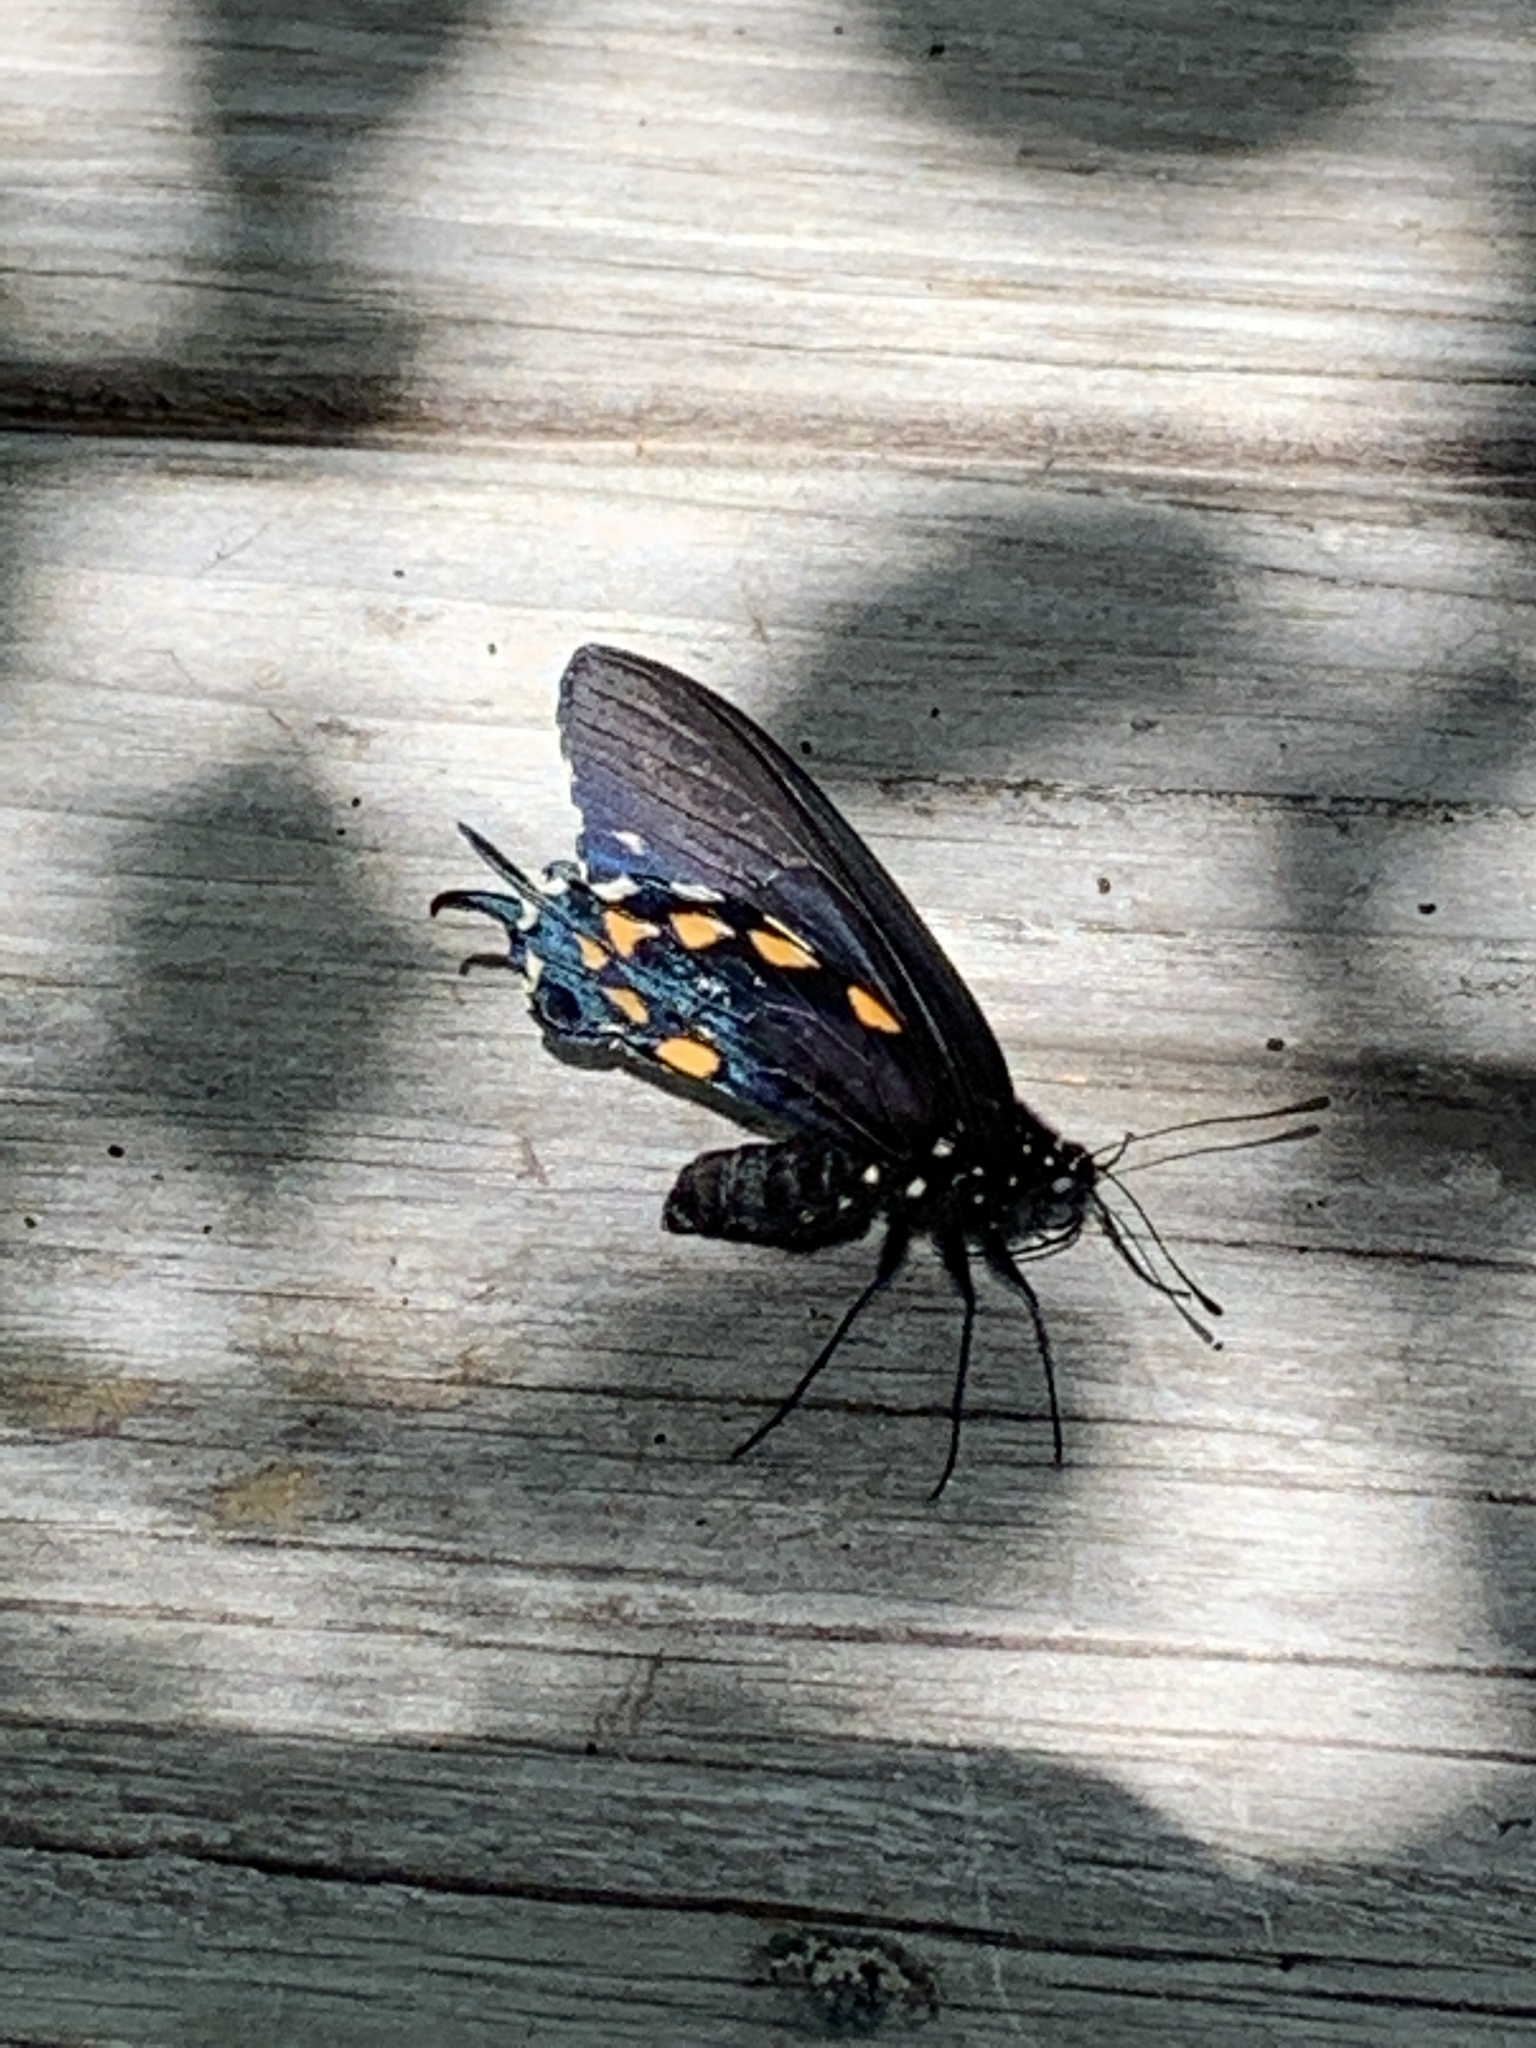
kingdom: Animalia
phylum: Arthropoda
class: Insecta
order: Lepidoptera
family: Papilionidae
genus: Battus
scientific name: Battus philenor
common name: Pipevine swallowtail
